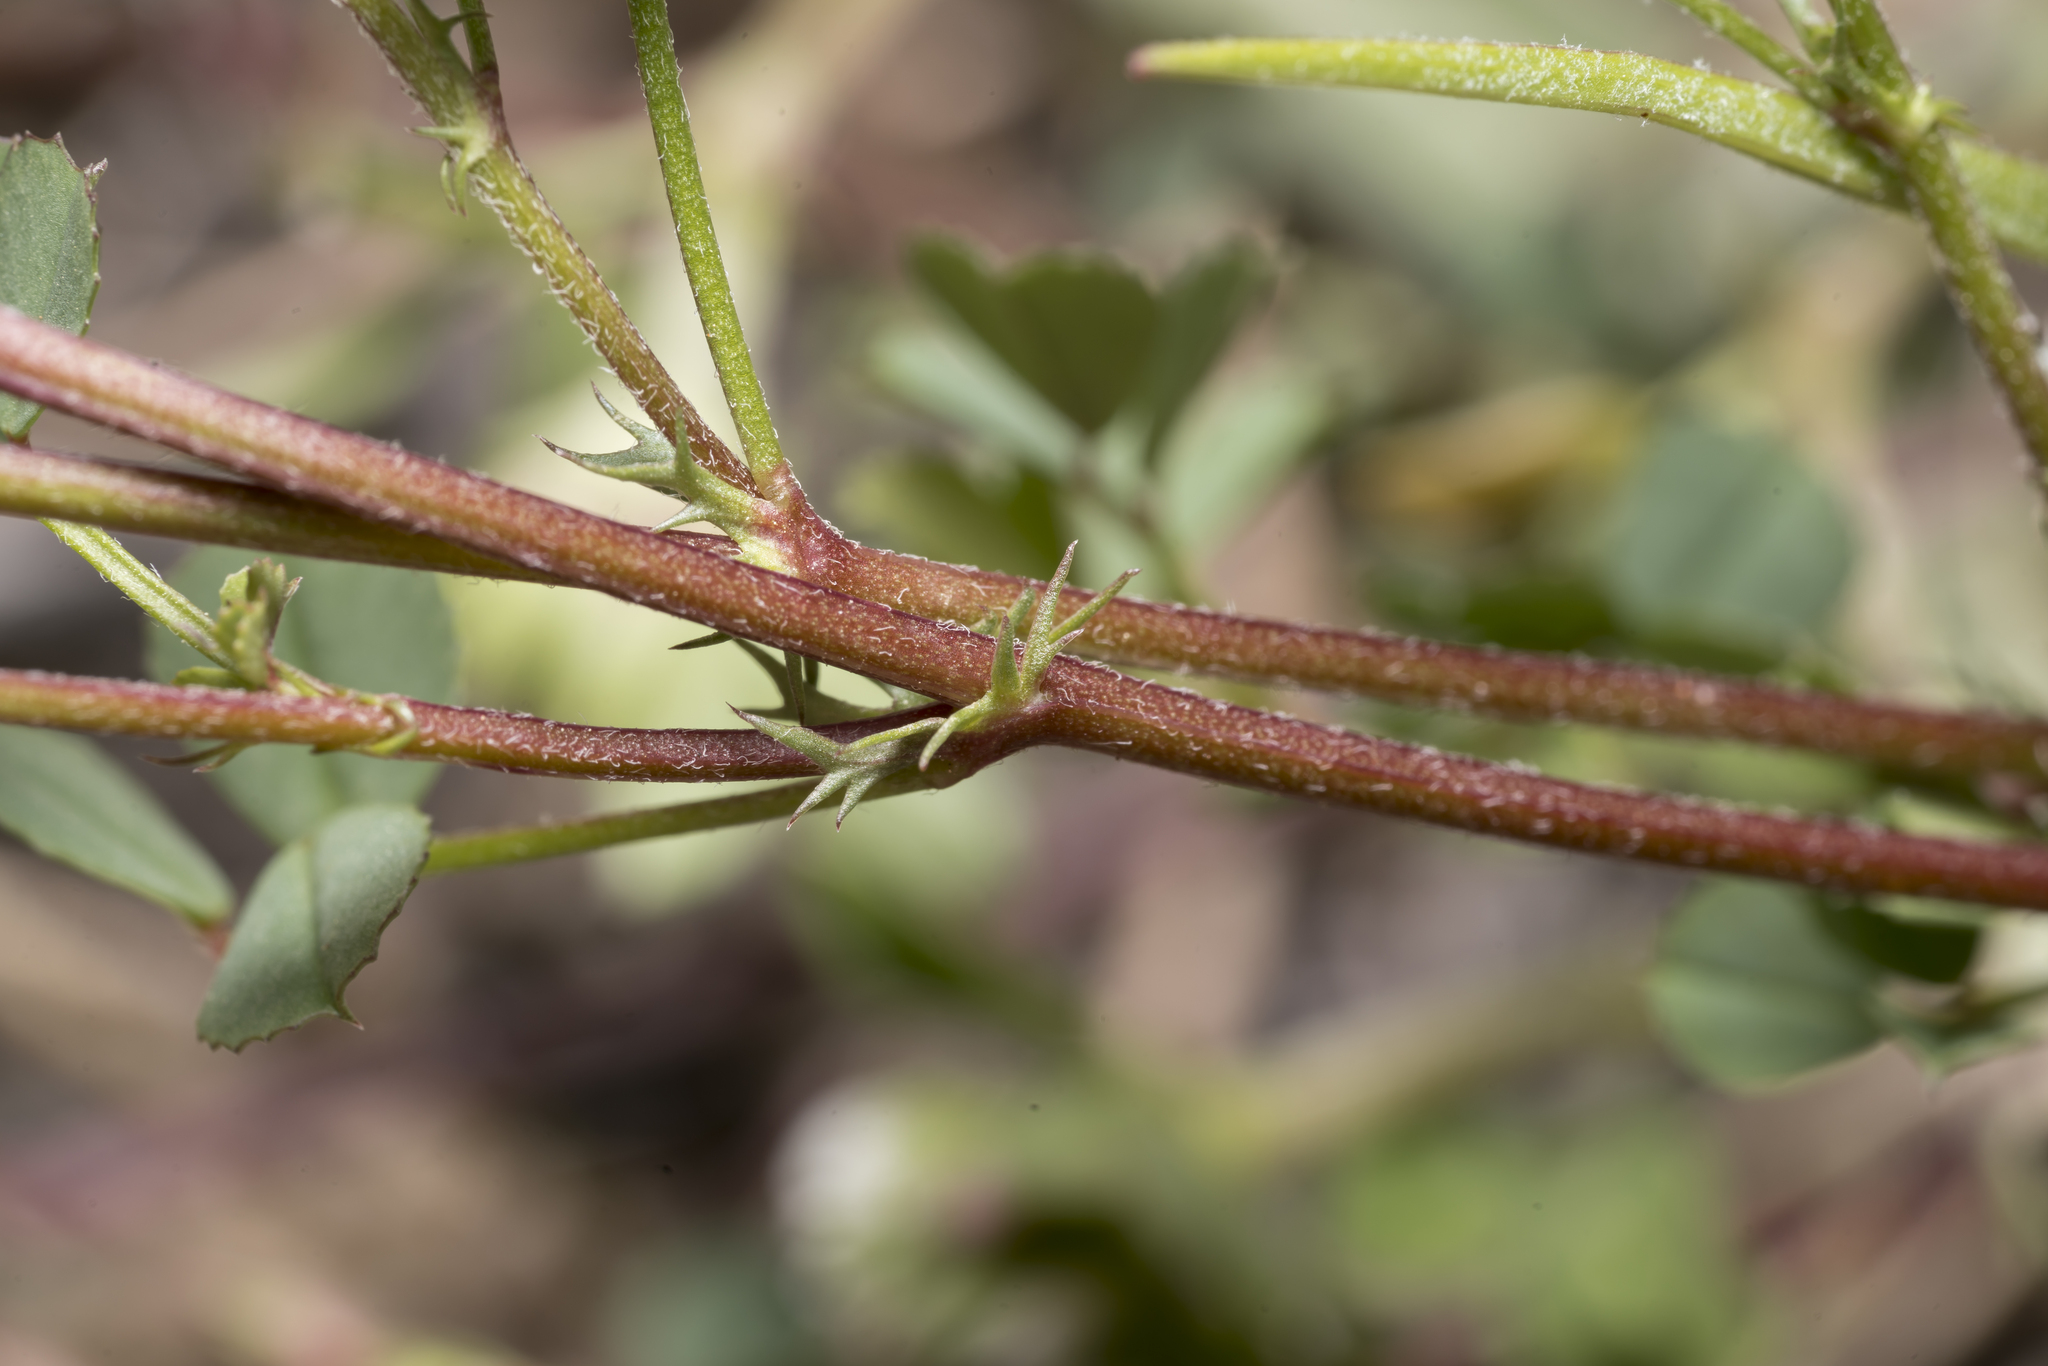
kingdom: Plantae
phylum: Tracheophyta
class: Magnoliopsida
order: Fabales
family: Fabaceae
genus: Medicago
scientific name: Medicago heyniana
